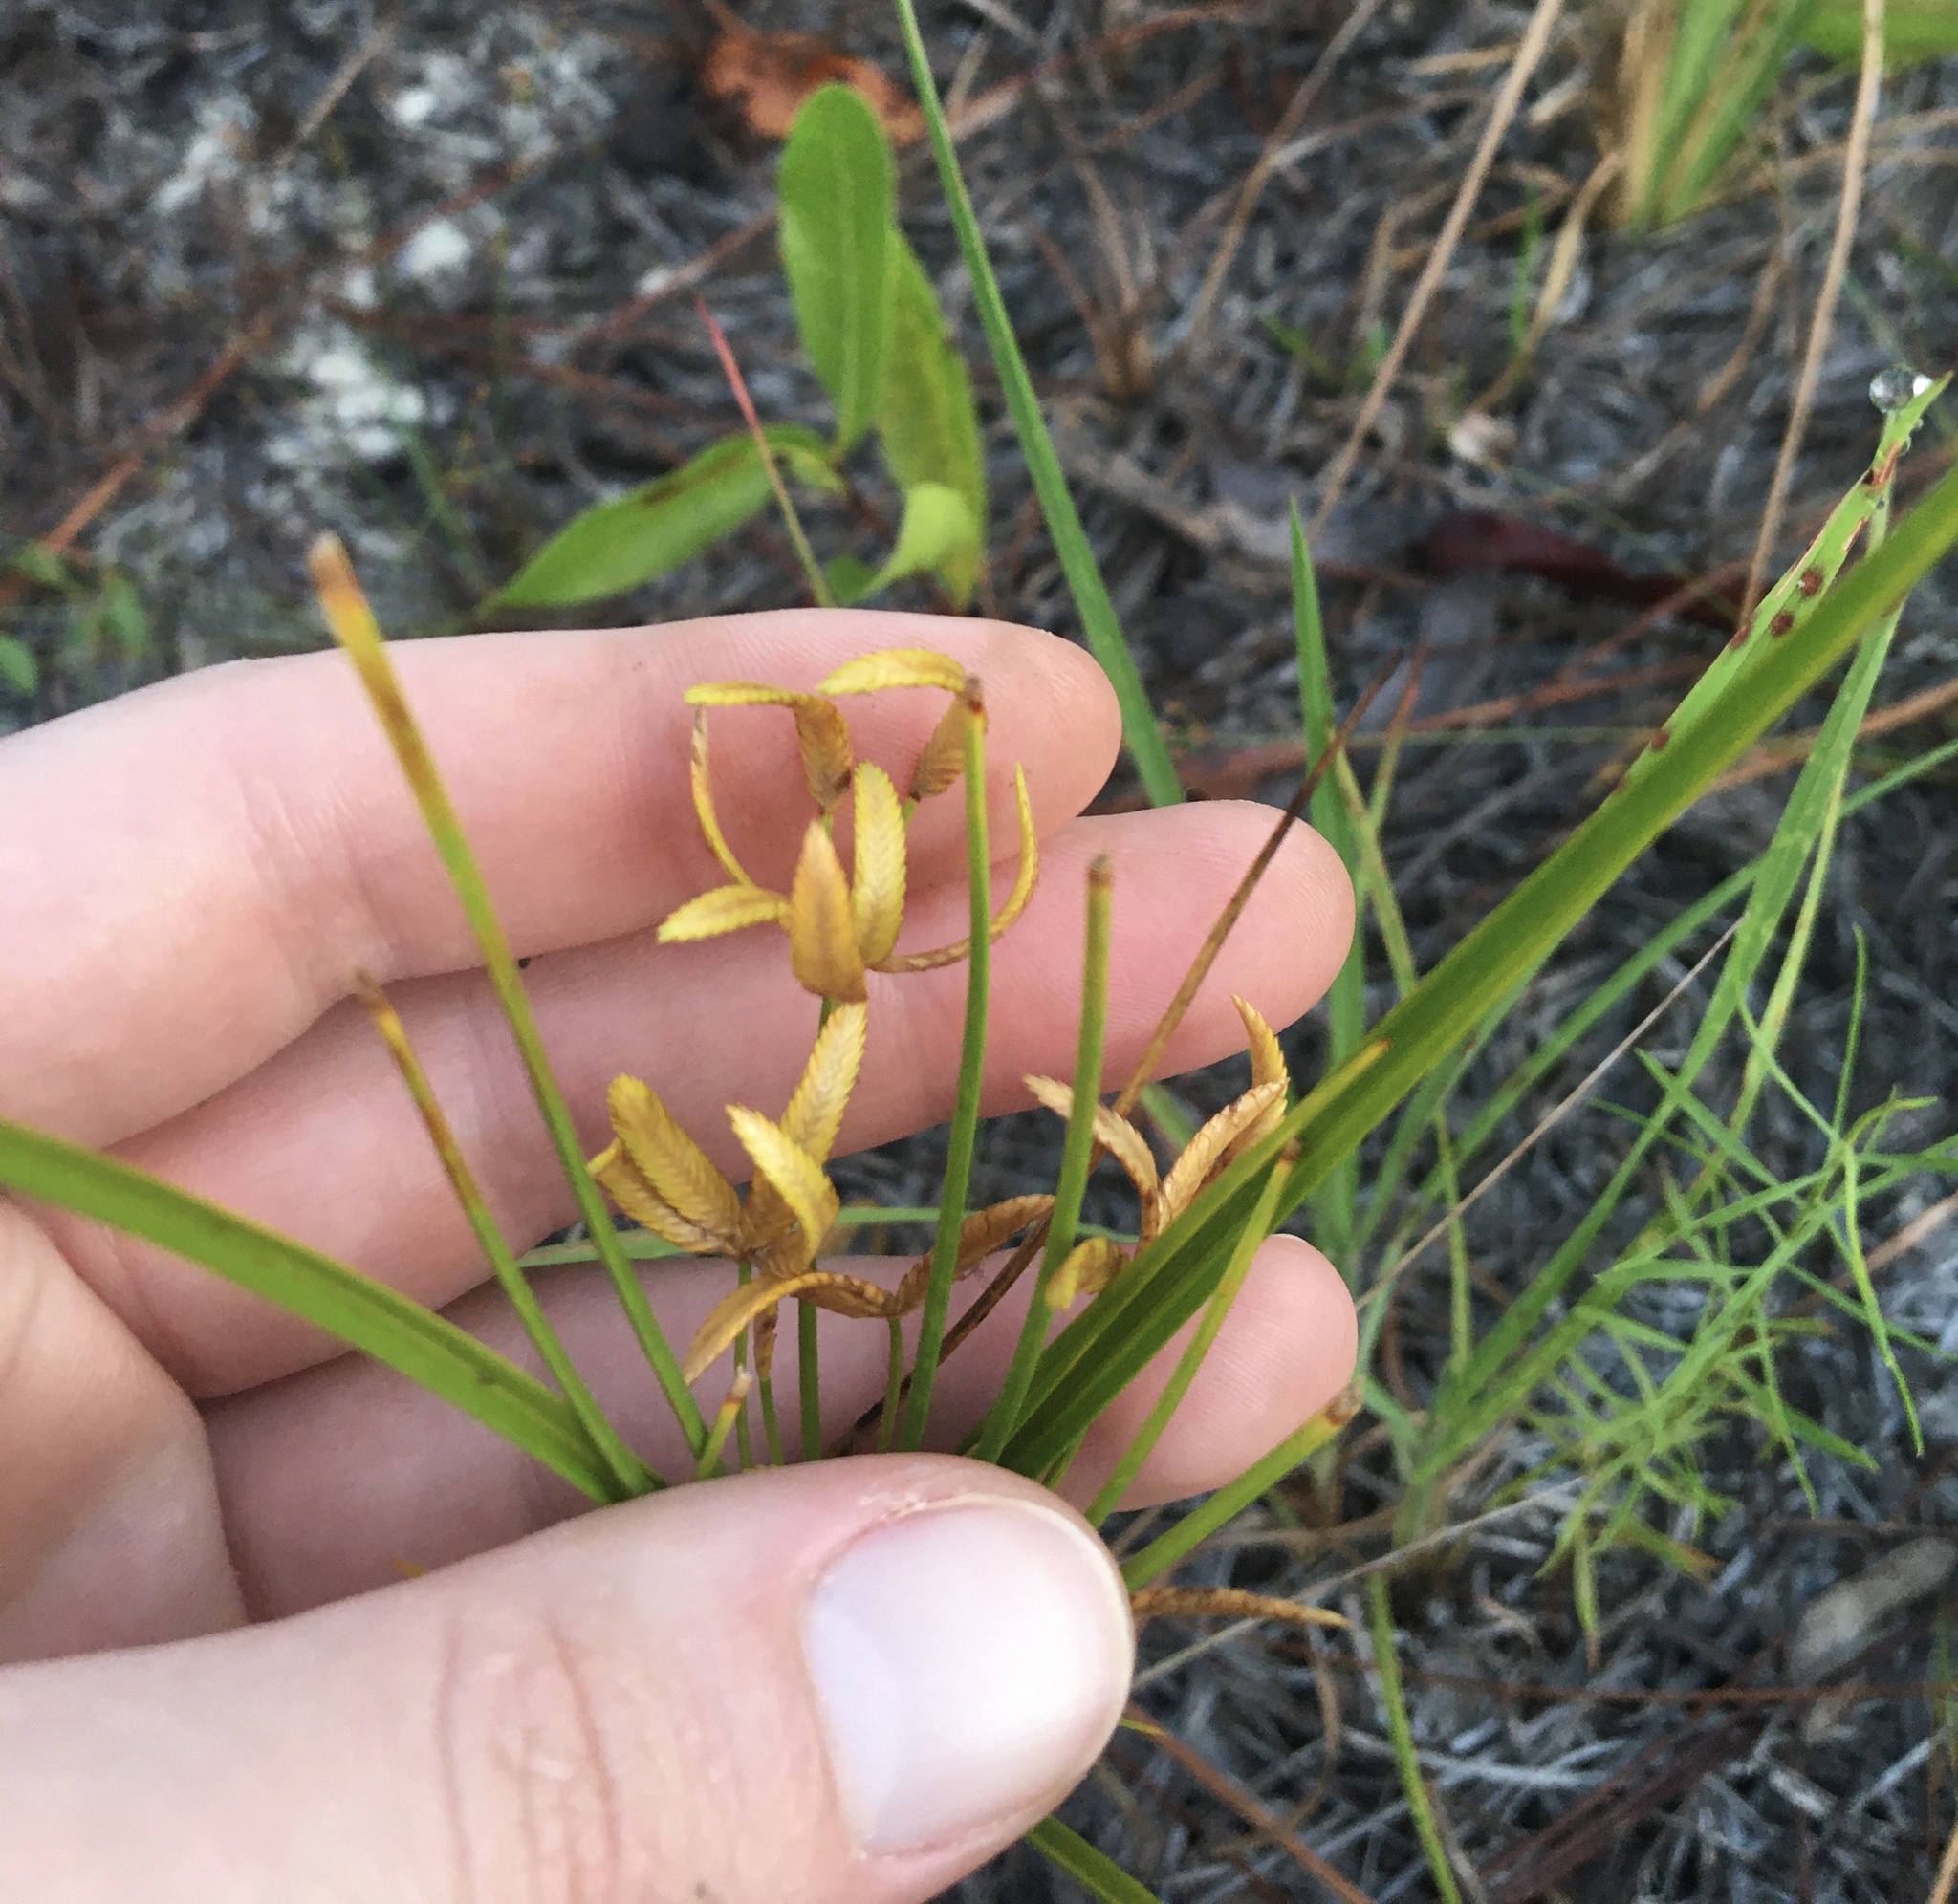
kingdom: Plantae
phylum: Tracheophyta
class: Liliopsida
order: Poales
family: Cyperaceae
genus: Cyperus
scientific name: Cyperus lecontei
